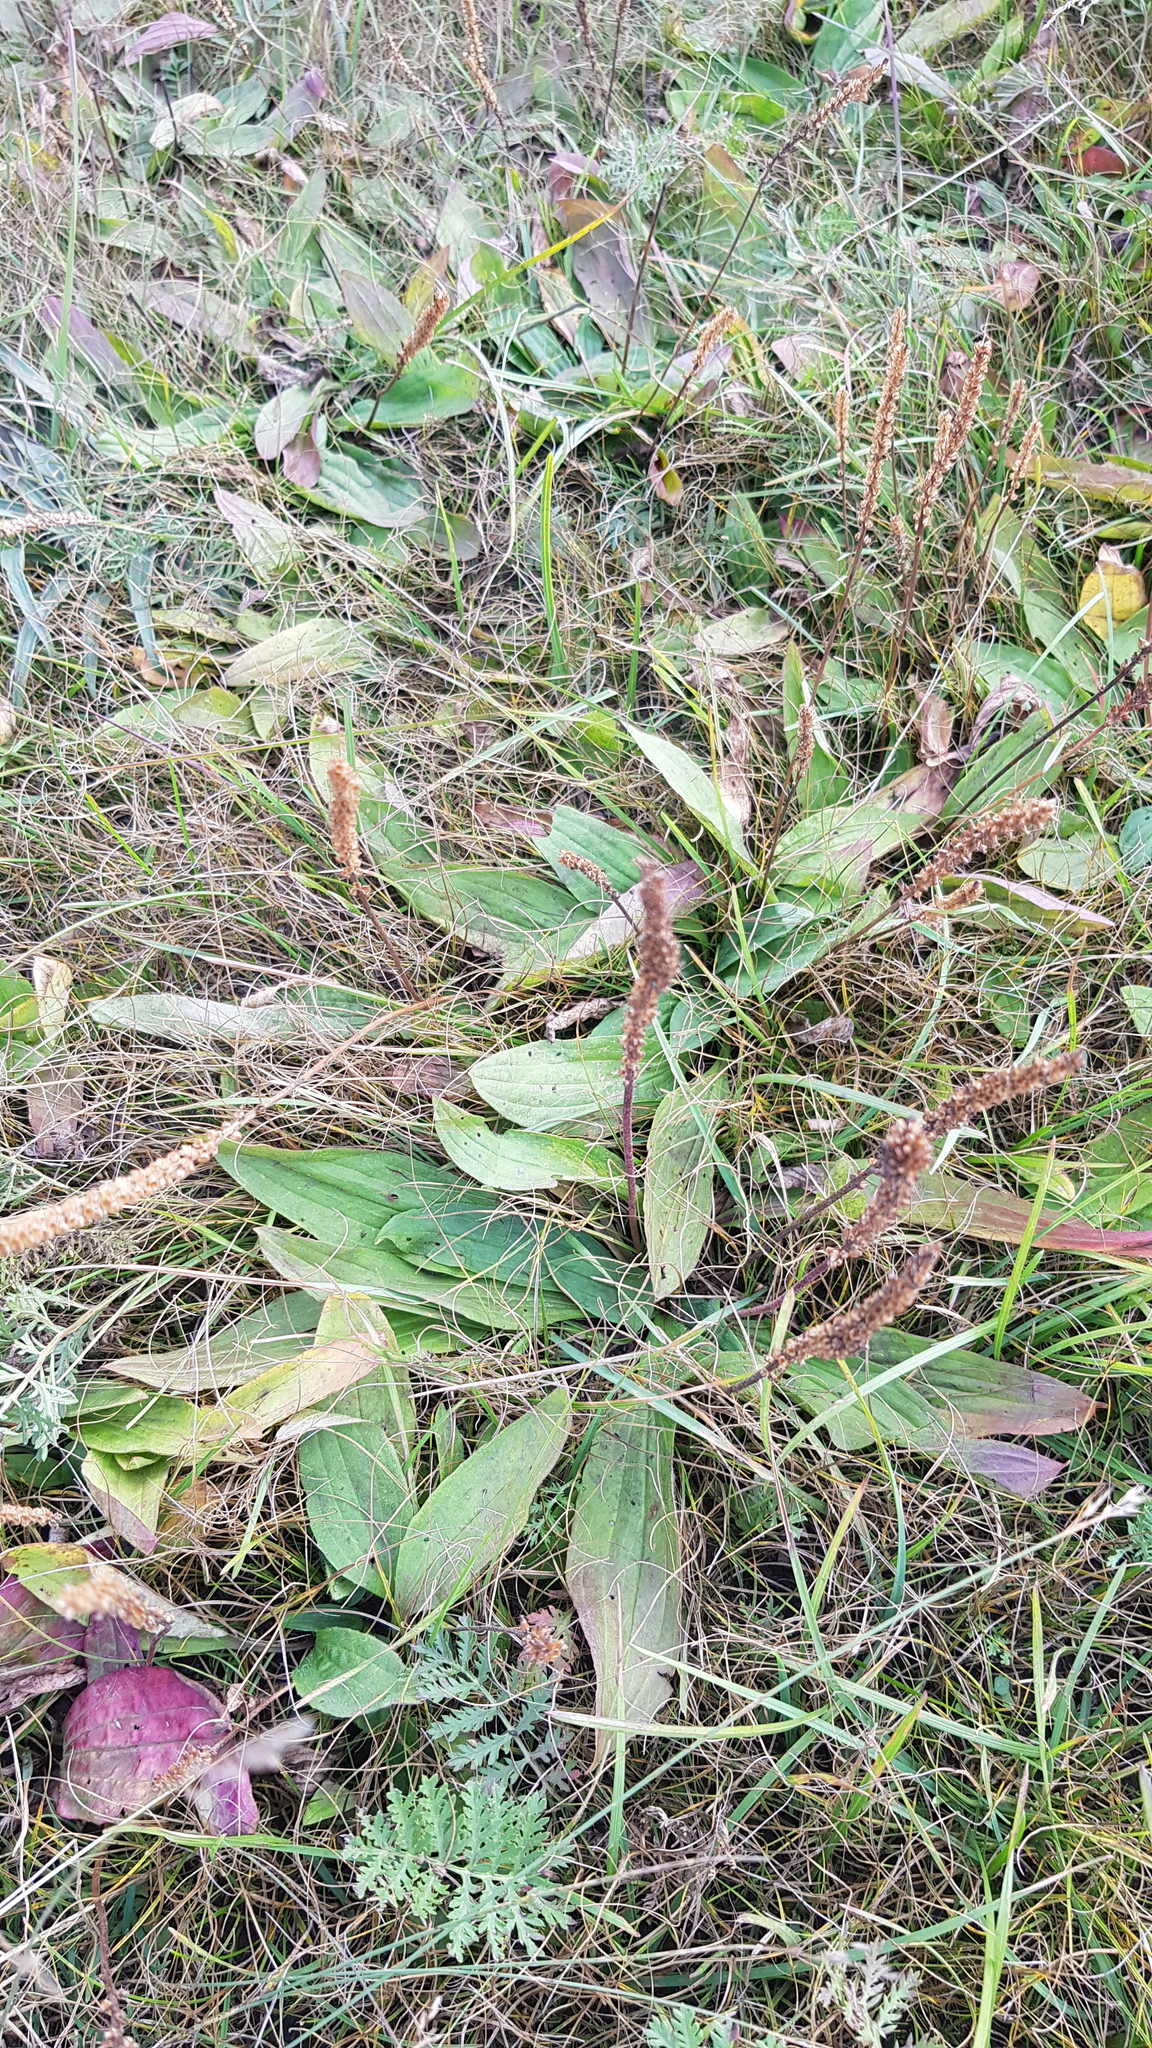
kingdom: Plantae
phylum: Tracheophyta
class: Magnoliopsida
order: Lamiales
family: Plantaginaceae
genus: Plantago
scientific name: Plantago depressa
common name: Depressed plantain
